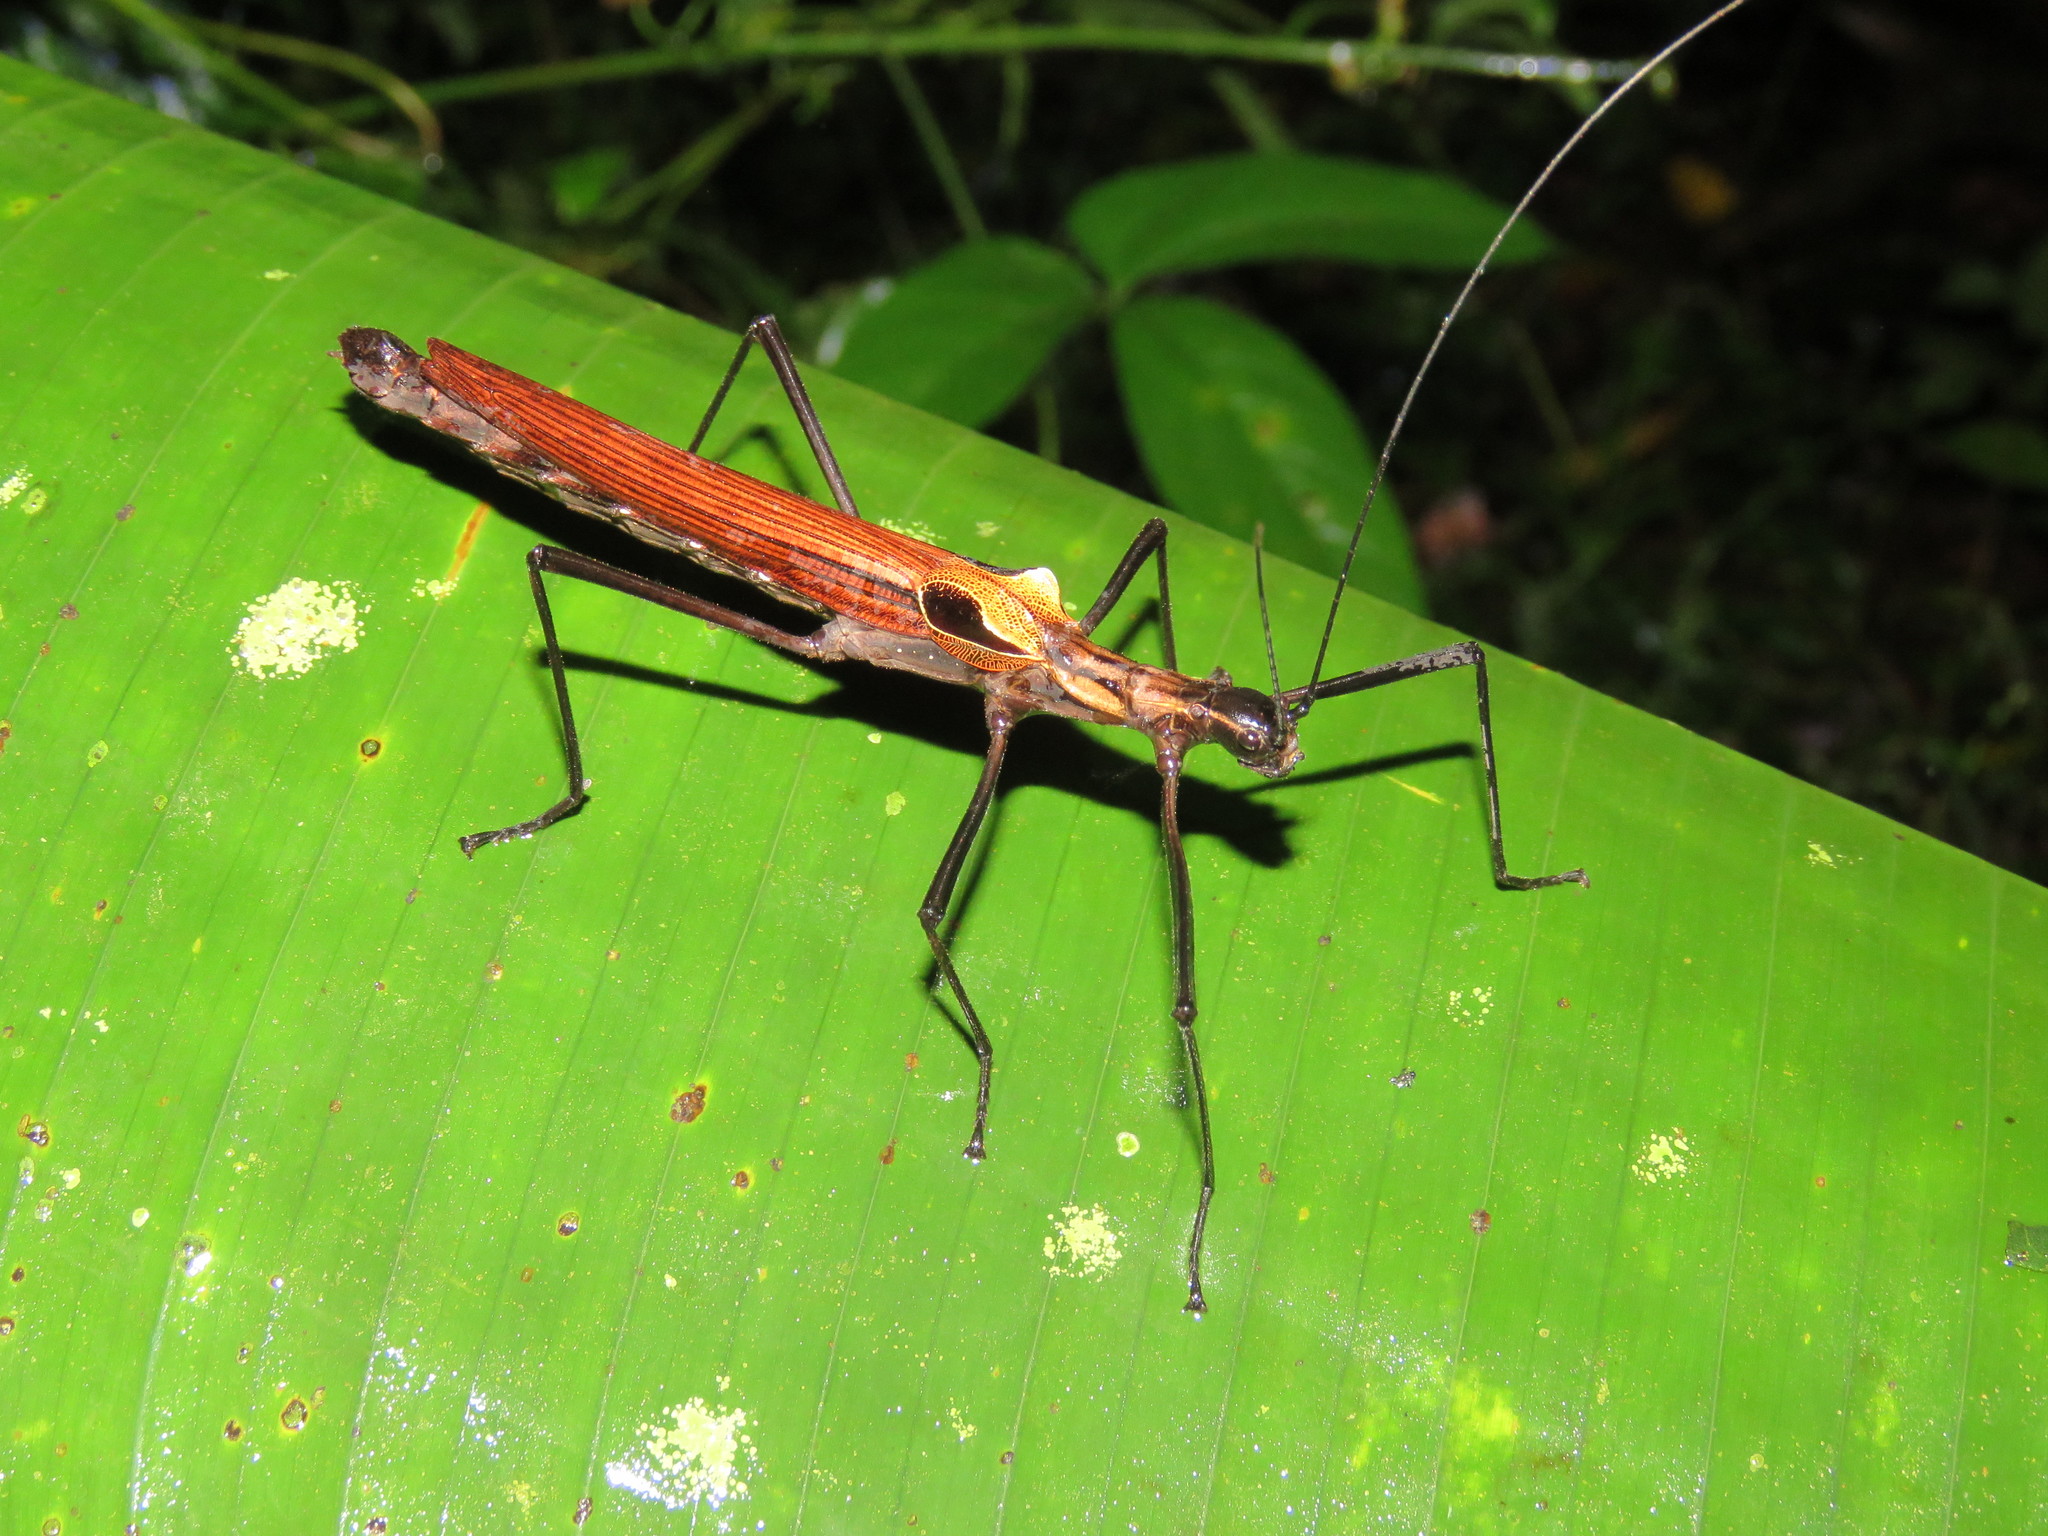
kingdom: Animalia
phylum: Arthropoda
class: Insecta
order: Phasmida
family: Pseudophasmatidae
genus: Pseudophasma
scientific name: Pseudophasma castaneum
